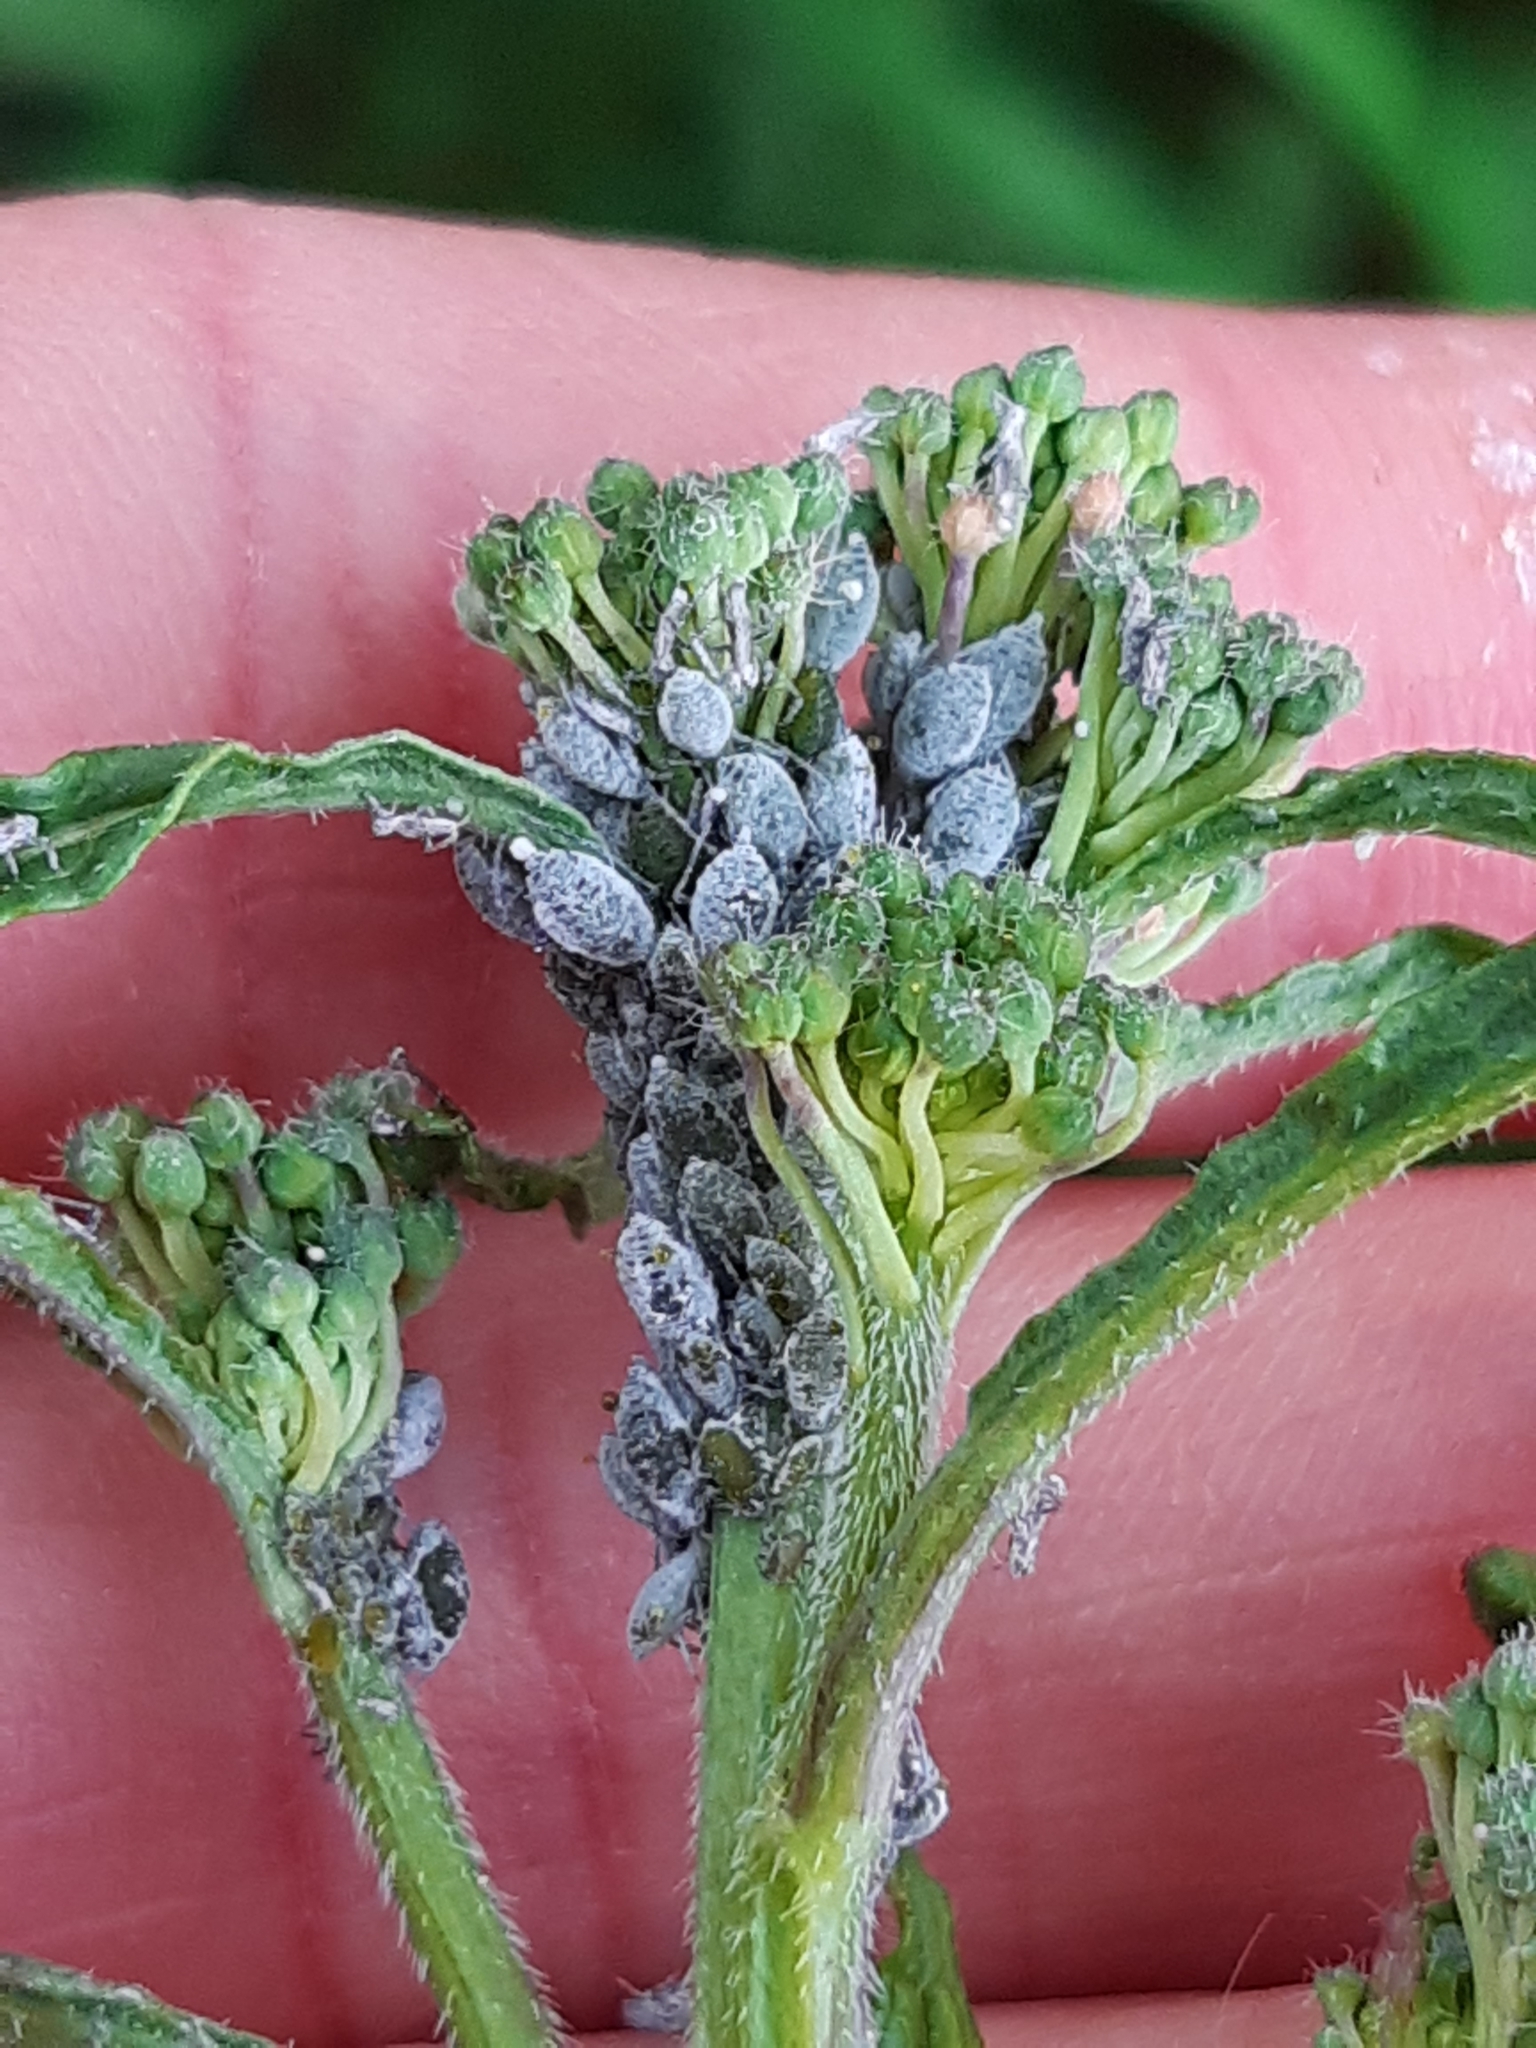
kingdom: Animalia
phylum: Arthropoda
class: Insecta
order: Hemiptera
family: Aphididae
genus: Brevicoryne
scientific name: Brevicoryne brassicae
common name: Cabbage aphid
